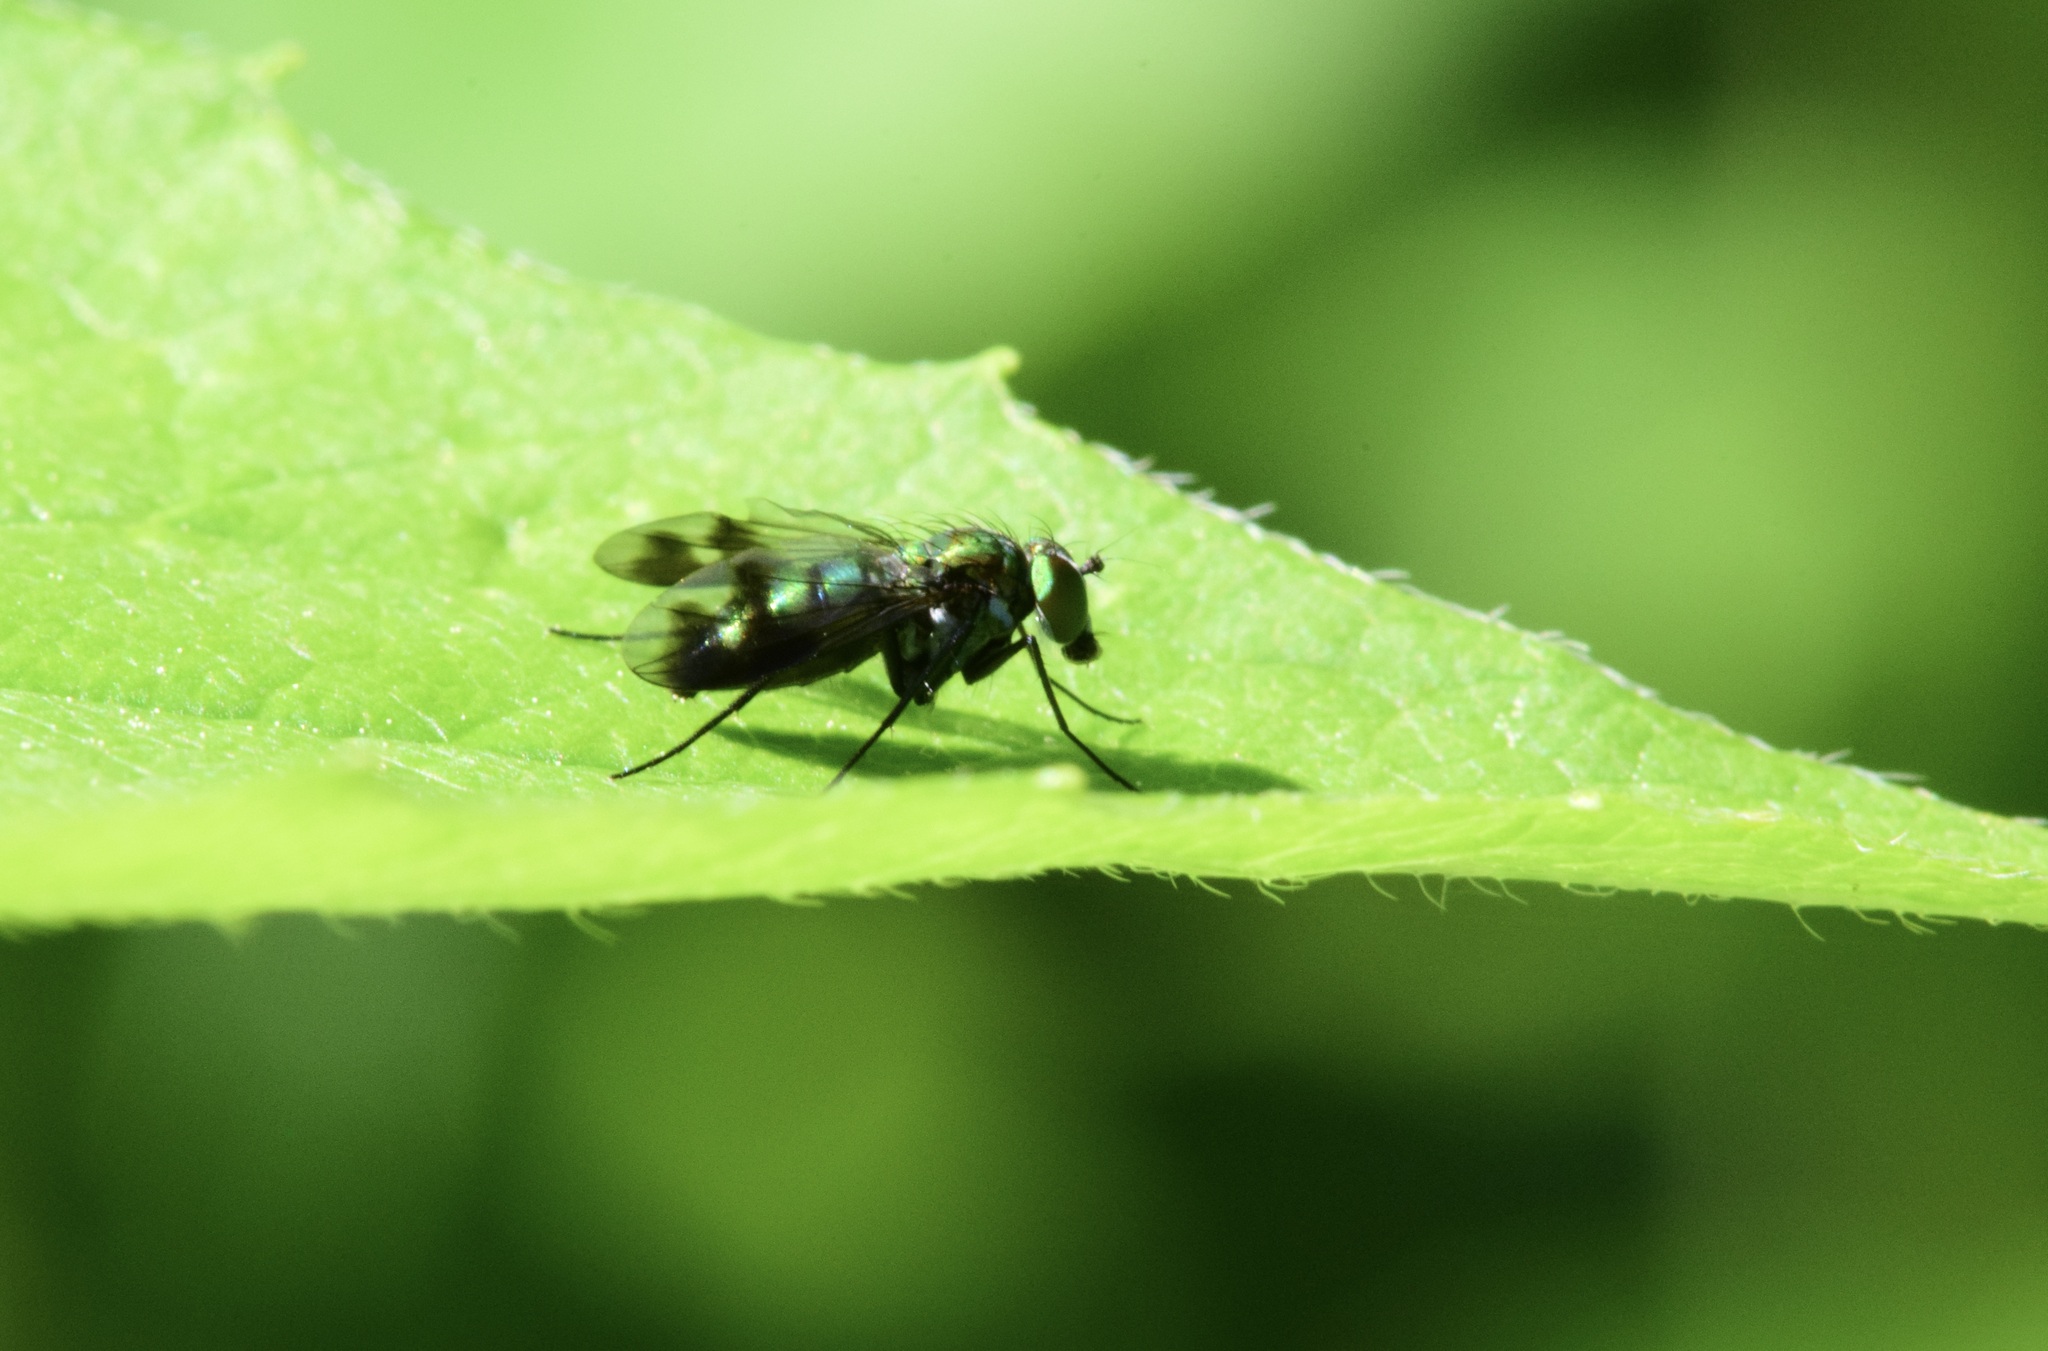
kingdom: Animalia
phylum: Arthropoda
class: Insecta
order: Diptera
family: Dolichopodidae
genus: Condylostylus
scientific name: Condylostylus patibulatus
